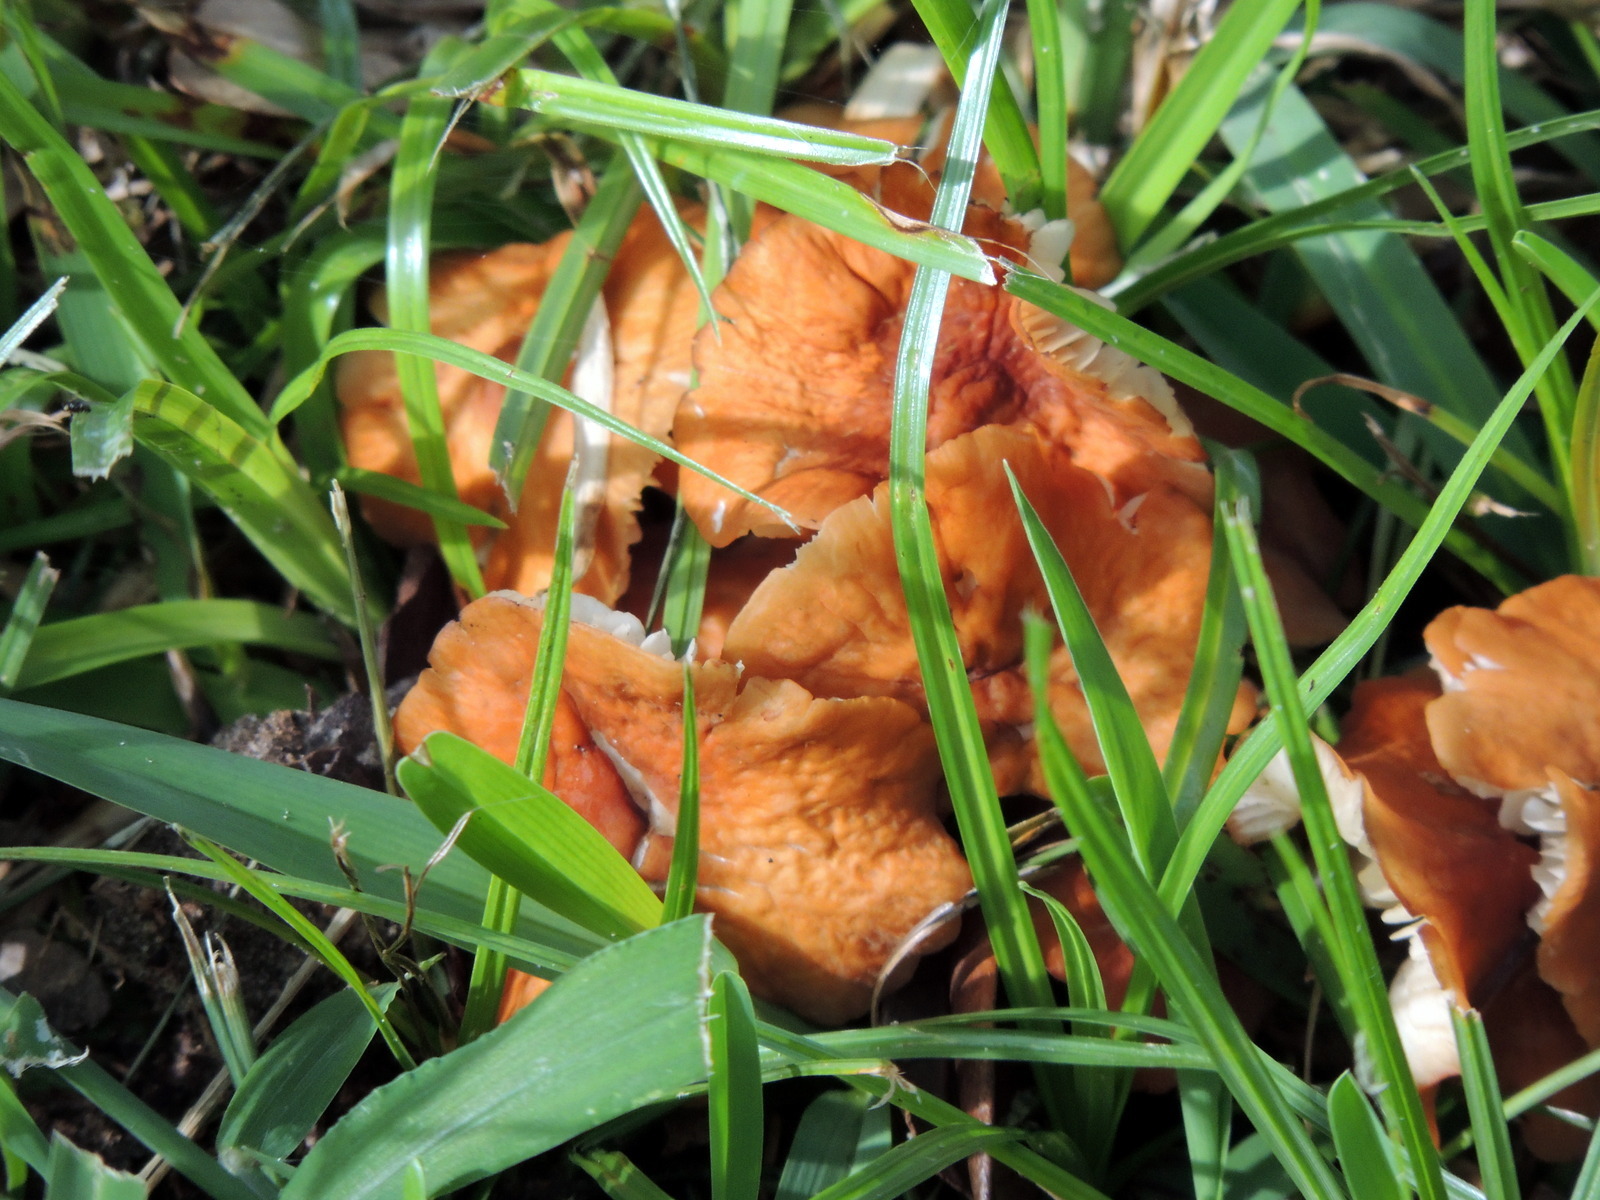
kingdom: Fungi
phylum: Basidiomycota
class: Agaricomycetes
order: Cantharellales
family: Hydnaceae
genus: Cantharellus
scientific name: Cantharellus cinnabarinus
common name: Cinnabar chanterelle
